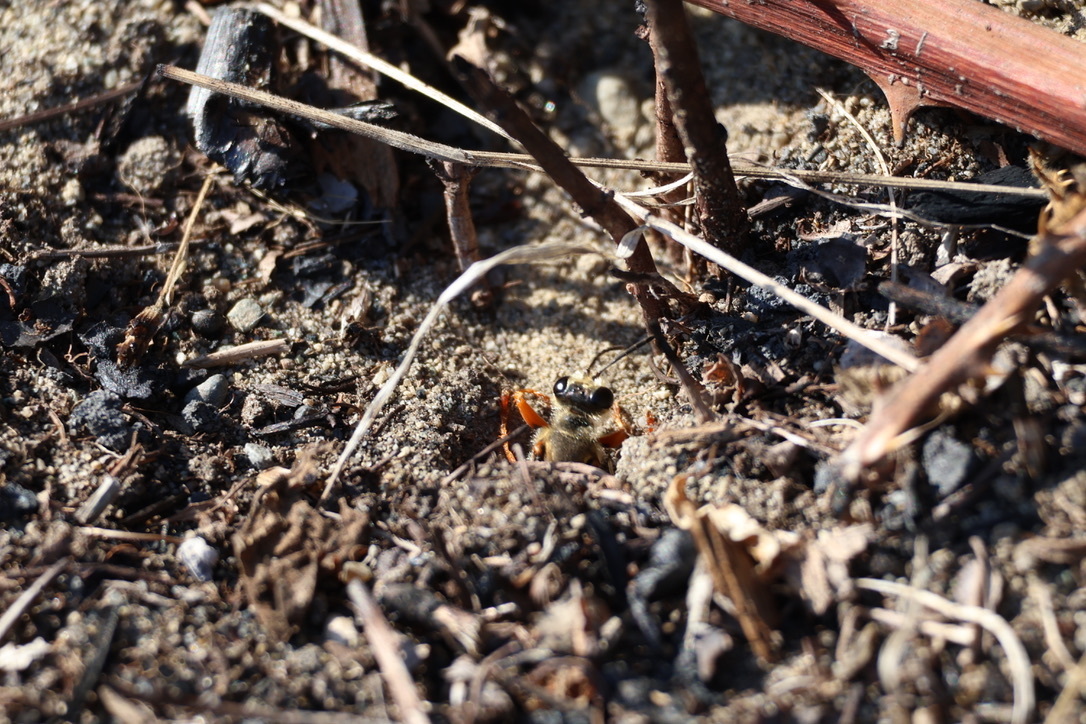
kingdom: Animalia
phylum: Arthropoda
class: Insecta
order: Hymenoptera
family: Sphecidae
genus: Sphex
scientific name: Sphex ichneumoneus
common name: Great golden digger wasp
